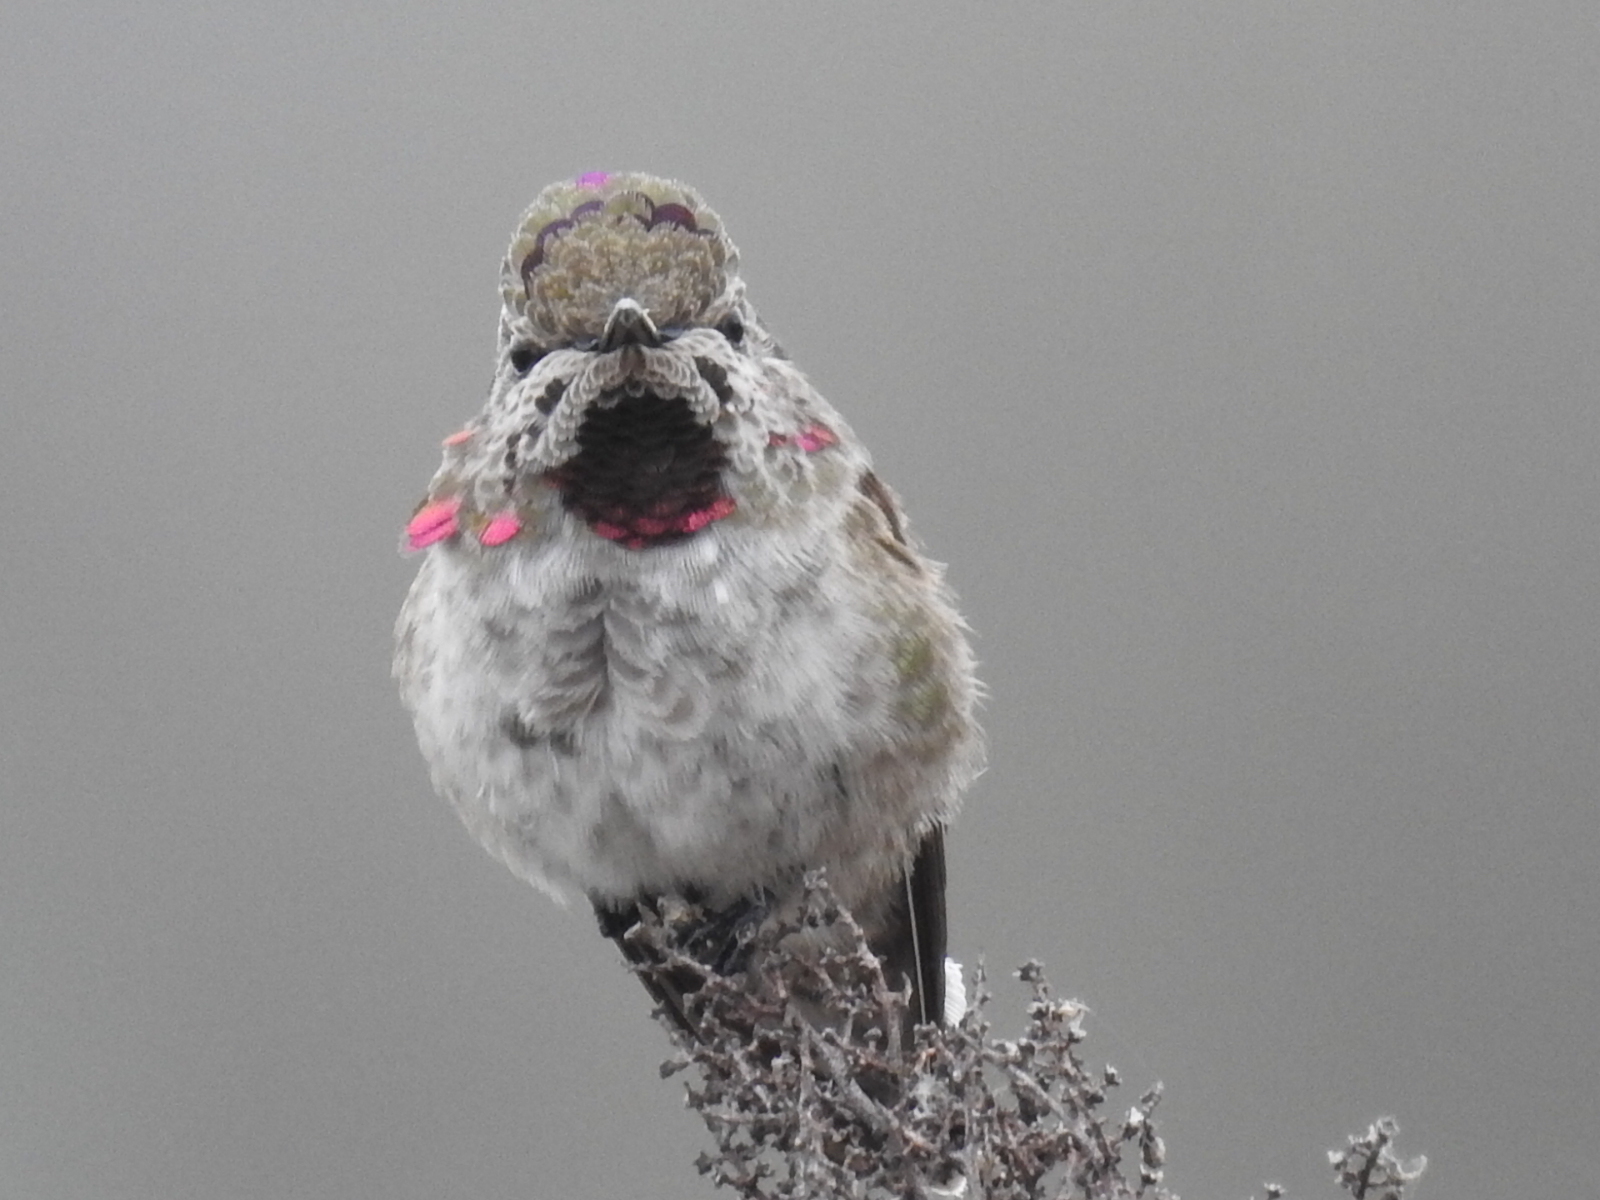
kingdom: Animalia
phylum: Chordata
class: Aves
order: Apodiformes
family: Trochilidae
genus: Calypte
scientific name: Calypte anna
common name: Anna's hummingbird
